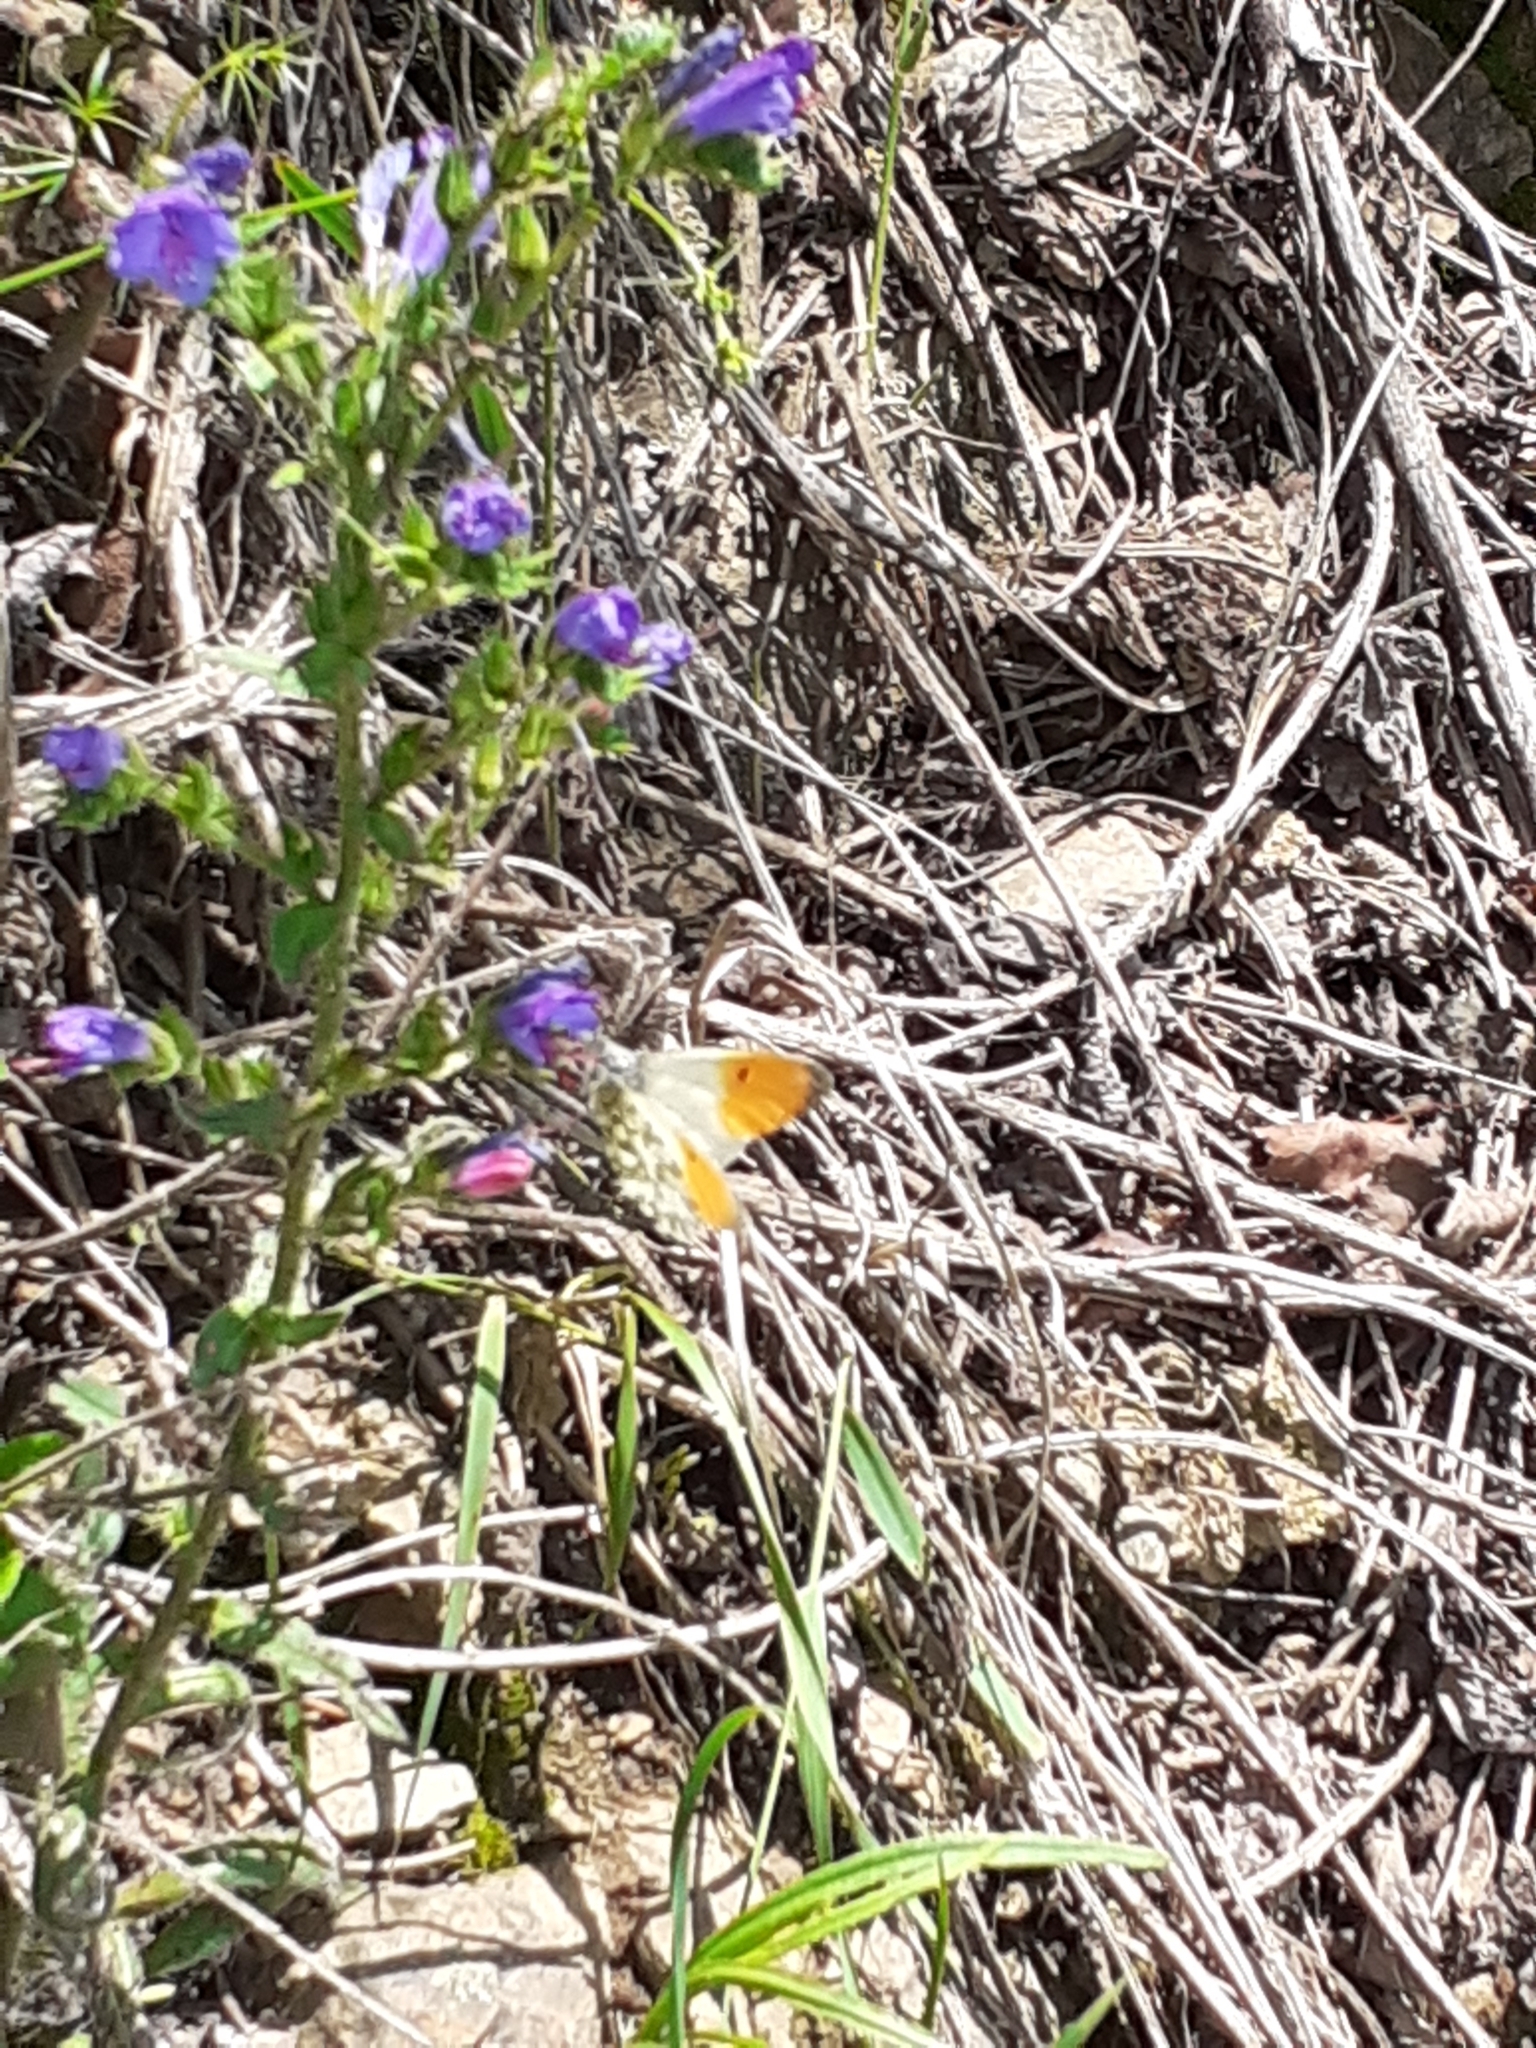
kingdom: Animalia
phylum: Arthropoda
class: Insecta
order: Lepidoptera
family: Pieridae
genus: Anthocharis
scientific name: Anthocharis cardamines
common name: Orange-tip
